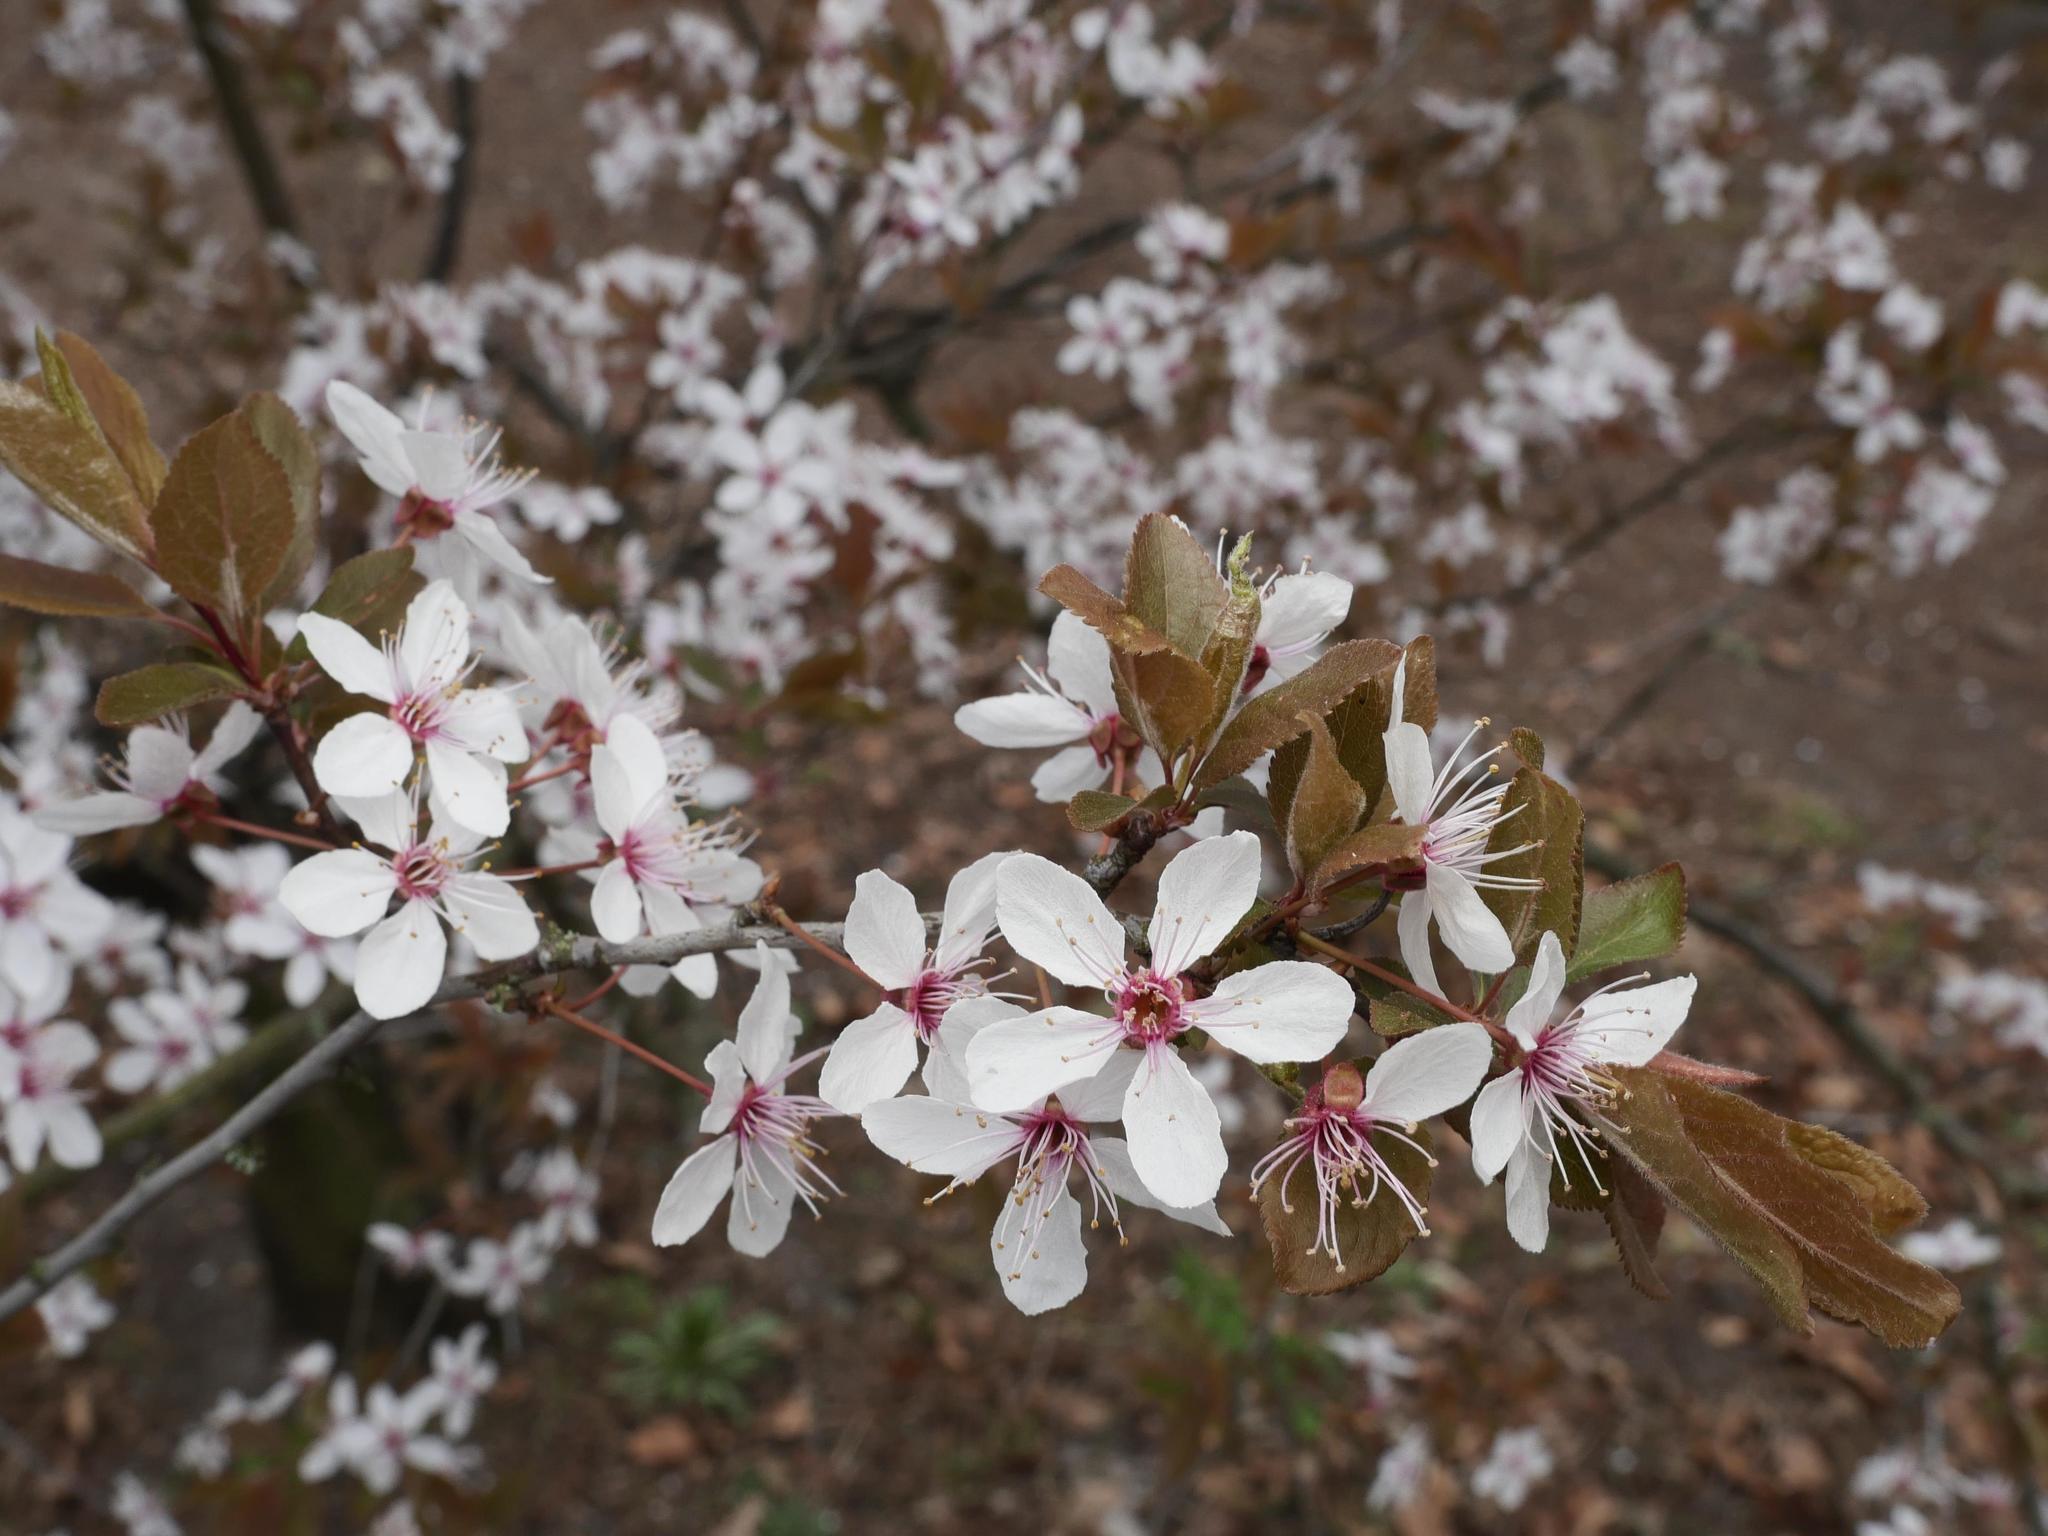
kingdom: Plantae
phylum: Tracheophyta
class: Magnoliopsida
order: Rosales
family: Rosaceae
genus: Prunus
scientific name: Prunus cerasifera
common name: Cherry plum
